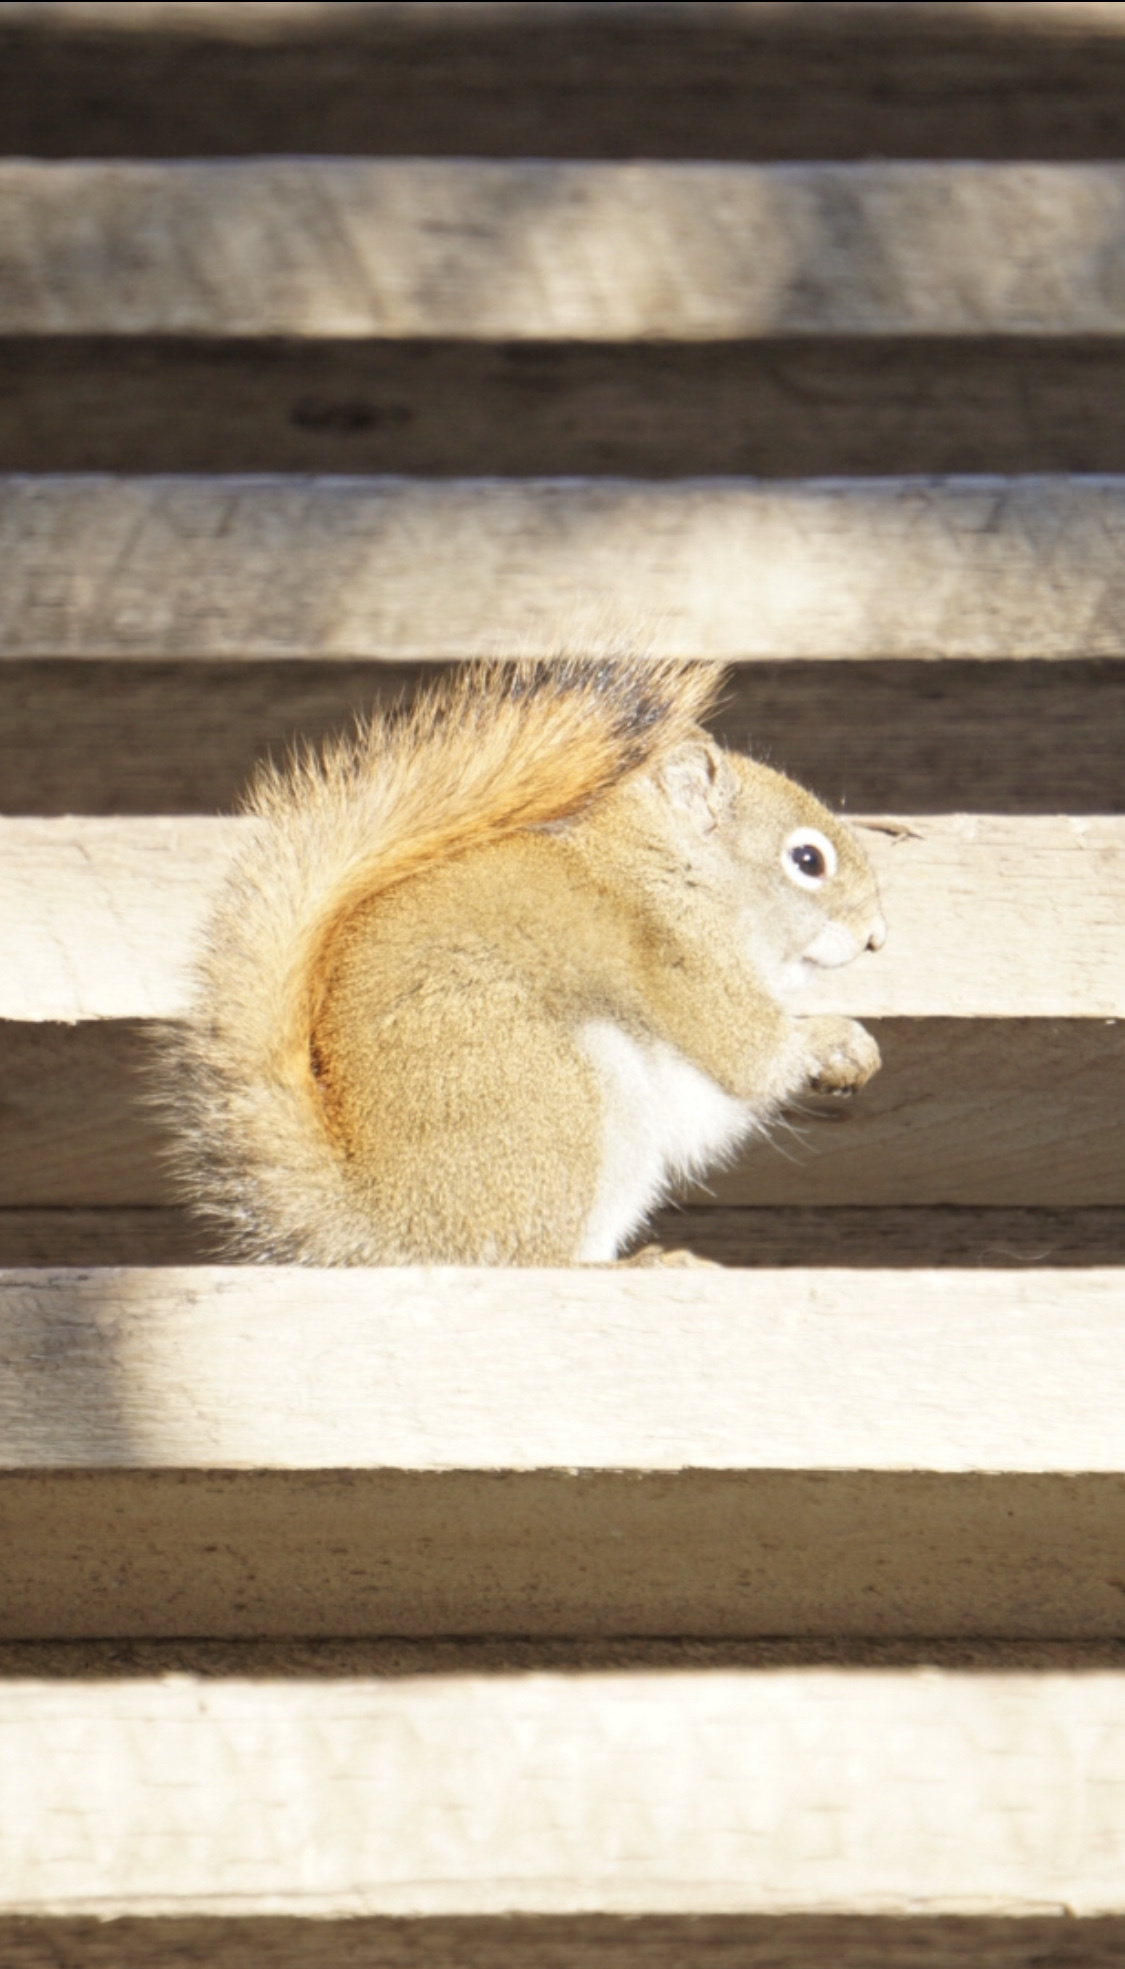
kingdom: Animalia
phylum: Chordata
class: Mammalia
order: Rodentia
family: Sciuridae
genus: Tamiasciurus
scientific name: Tamiasciurus hudsonicus
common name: Red squirrel
